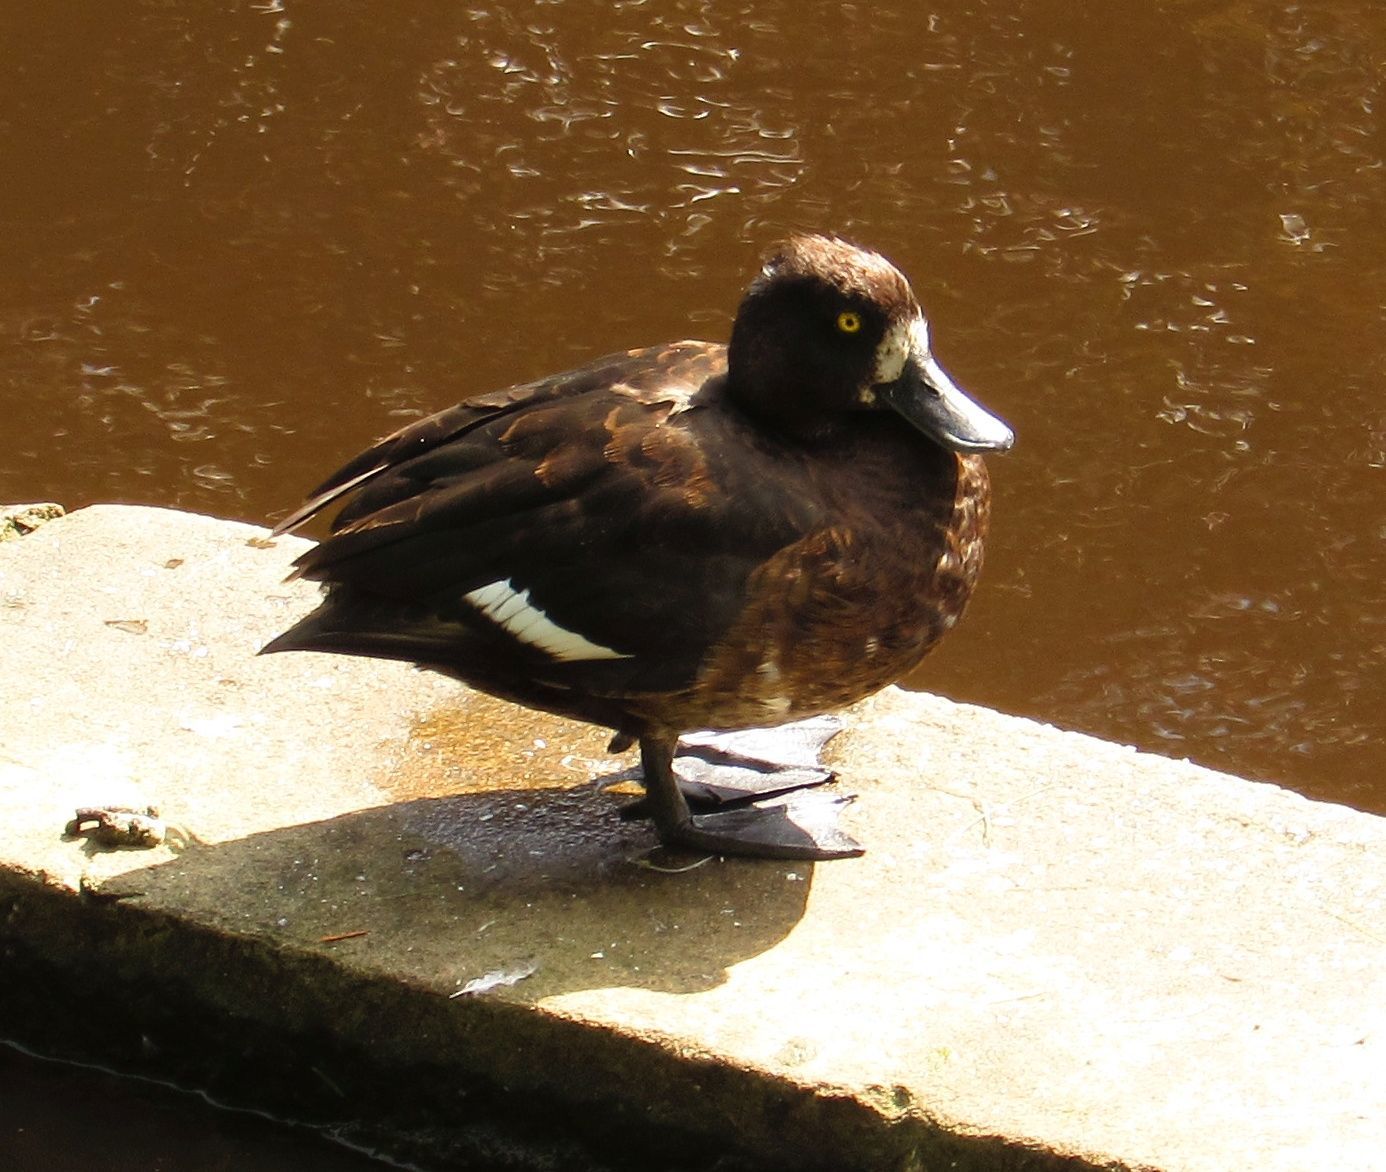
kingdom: Animalia
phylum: Chordata
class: Aves
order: Anseriformes
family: Anatidae
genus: Aythya
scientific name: Aythya fuligula
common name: Tufted duck
